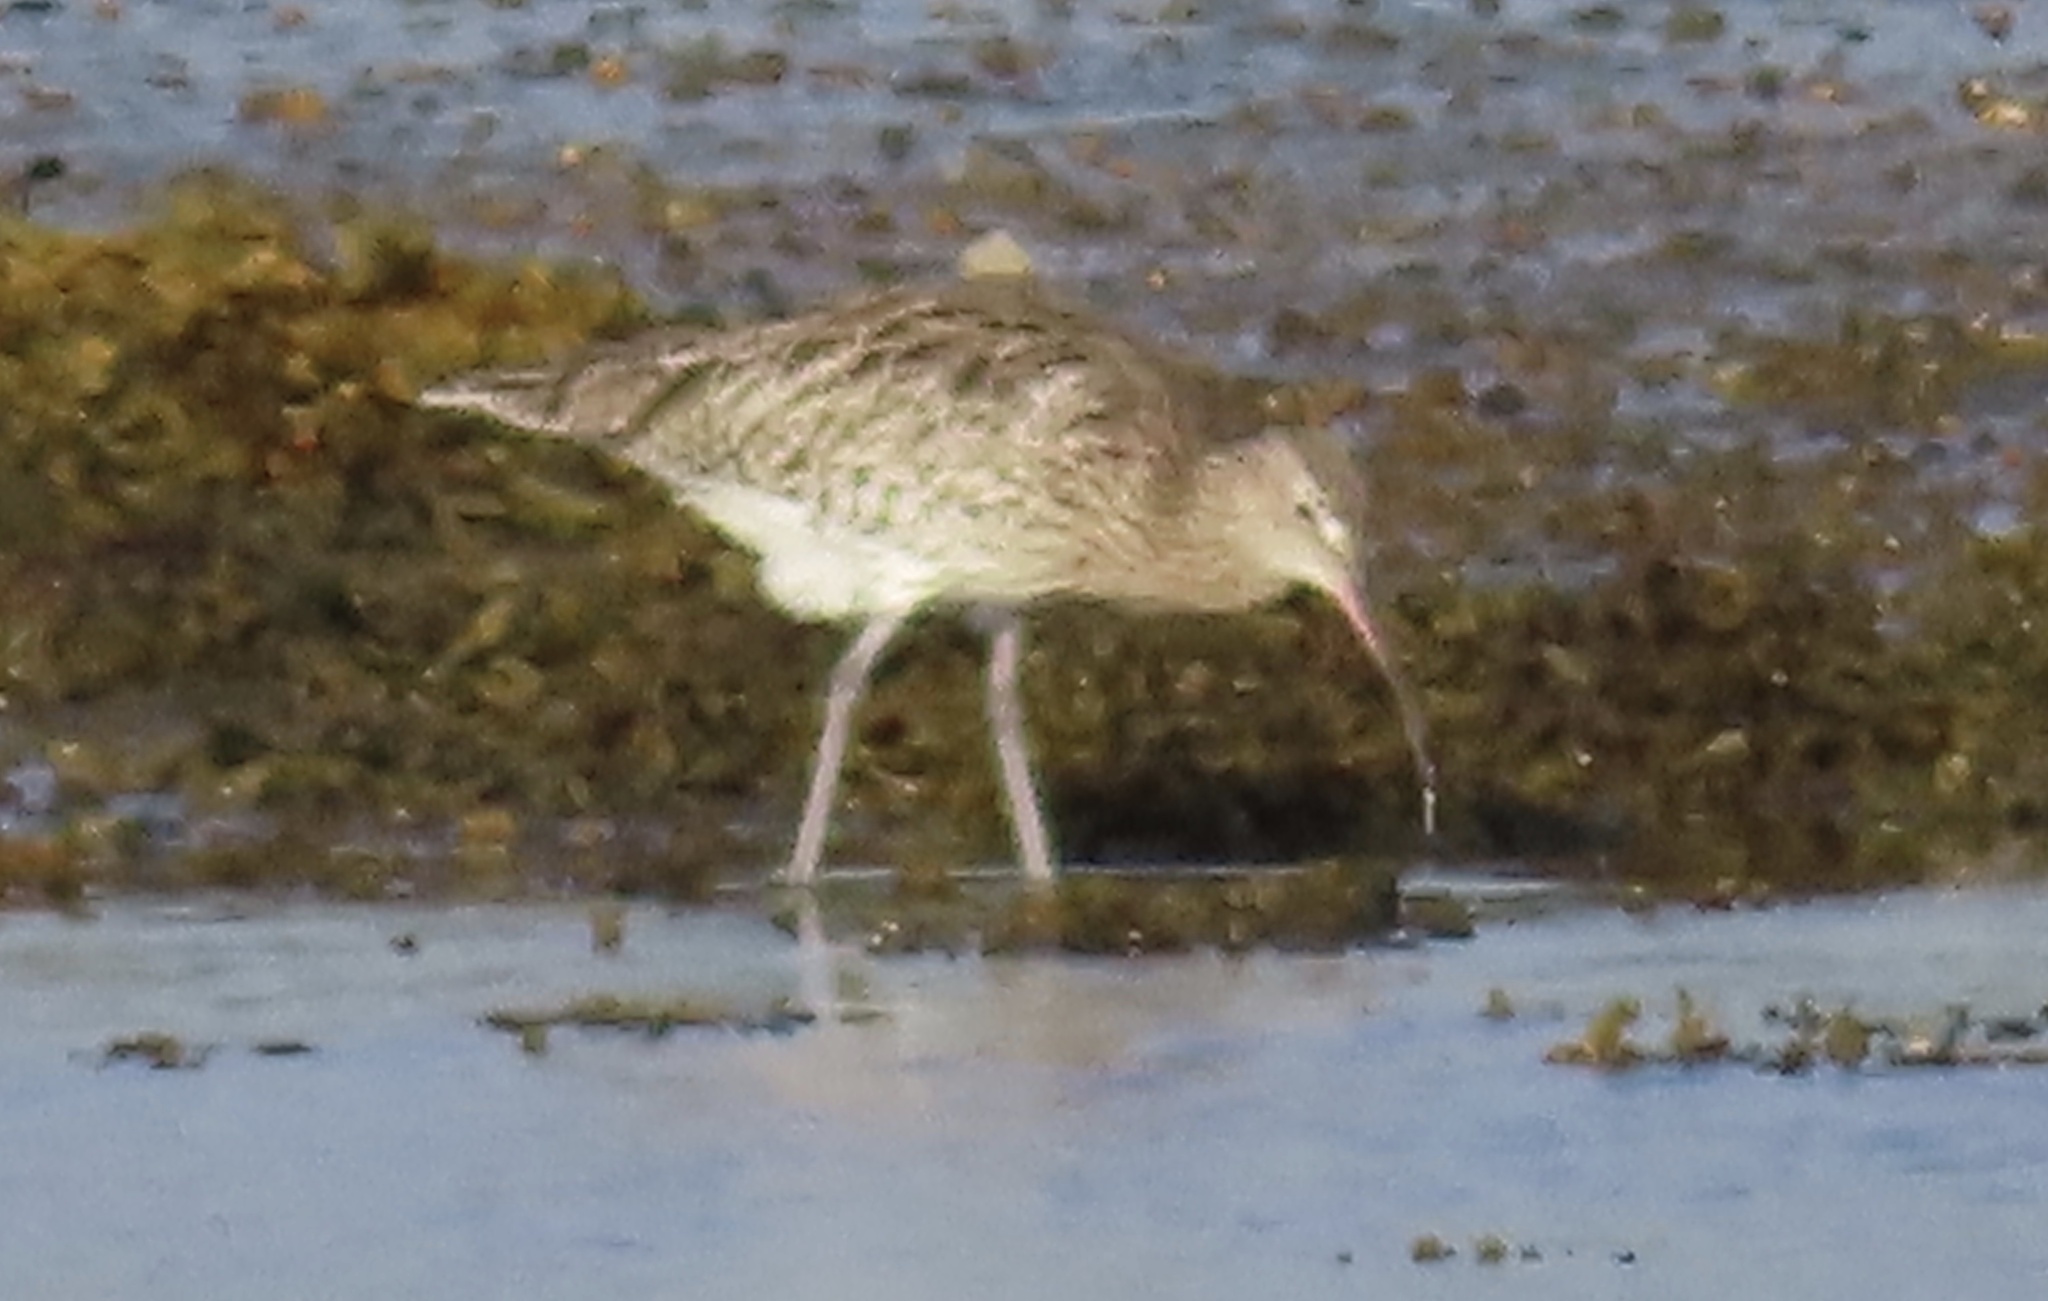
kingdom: Animalia
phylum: Chordata
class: Aves
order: Charadriiformes
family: Scolopacidae
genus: Numenius
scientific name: Numenius arquata
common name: Eurasian curlew
